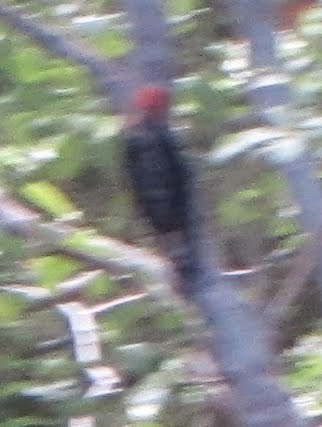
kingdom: Animalia
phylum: Chordata
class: Aves
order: Piciformes
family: Picidae
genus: Sphyrapicus
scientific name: Sphyrapicus ruber
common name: Red-breasted sapsucker
